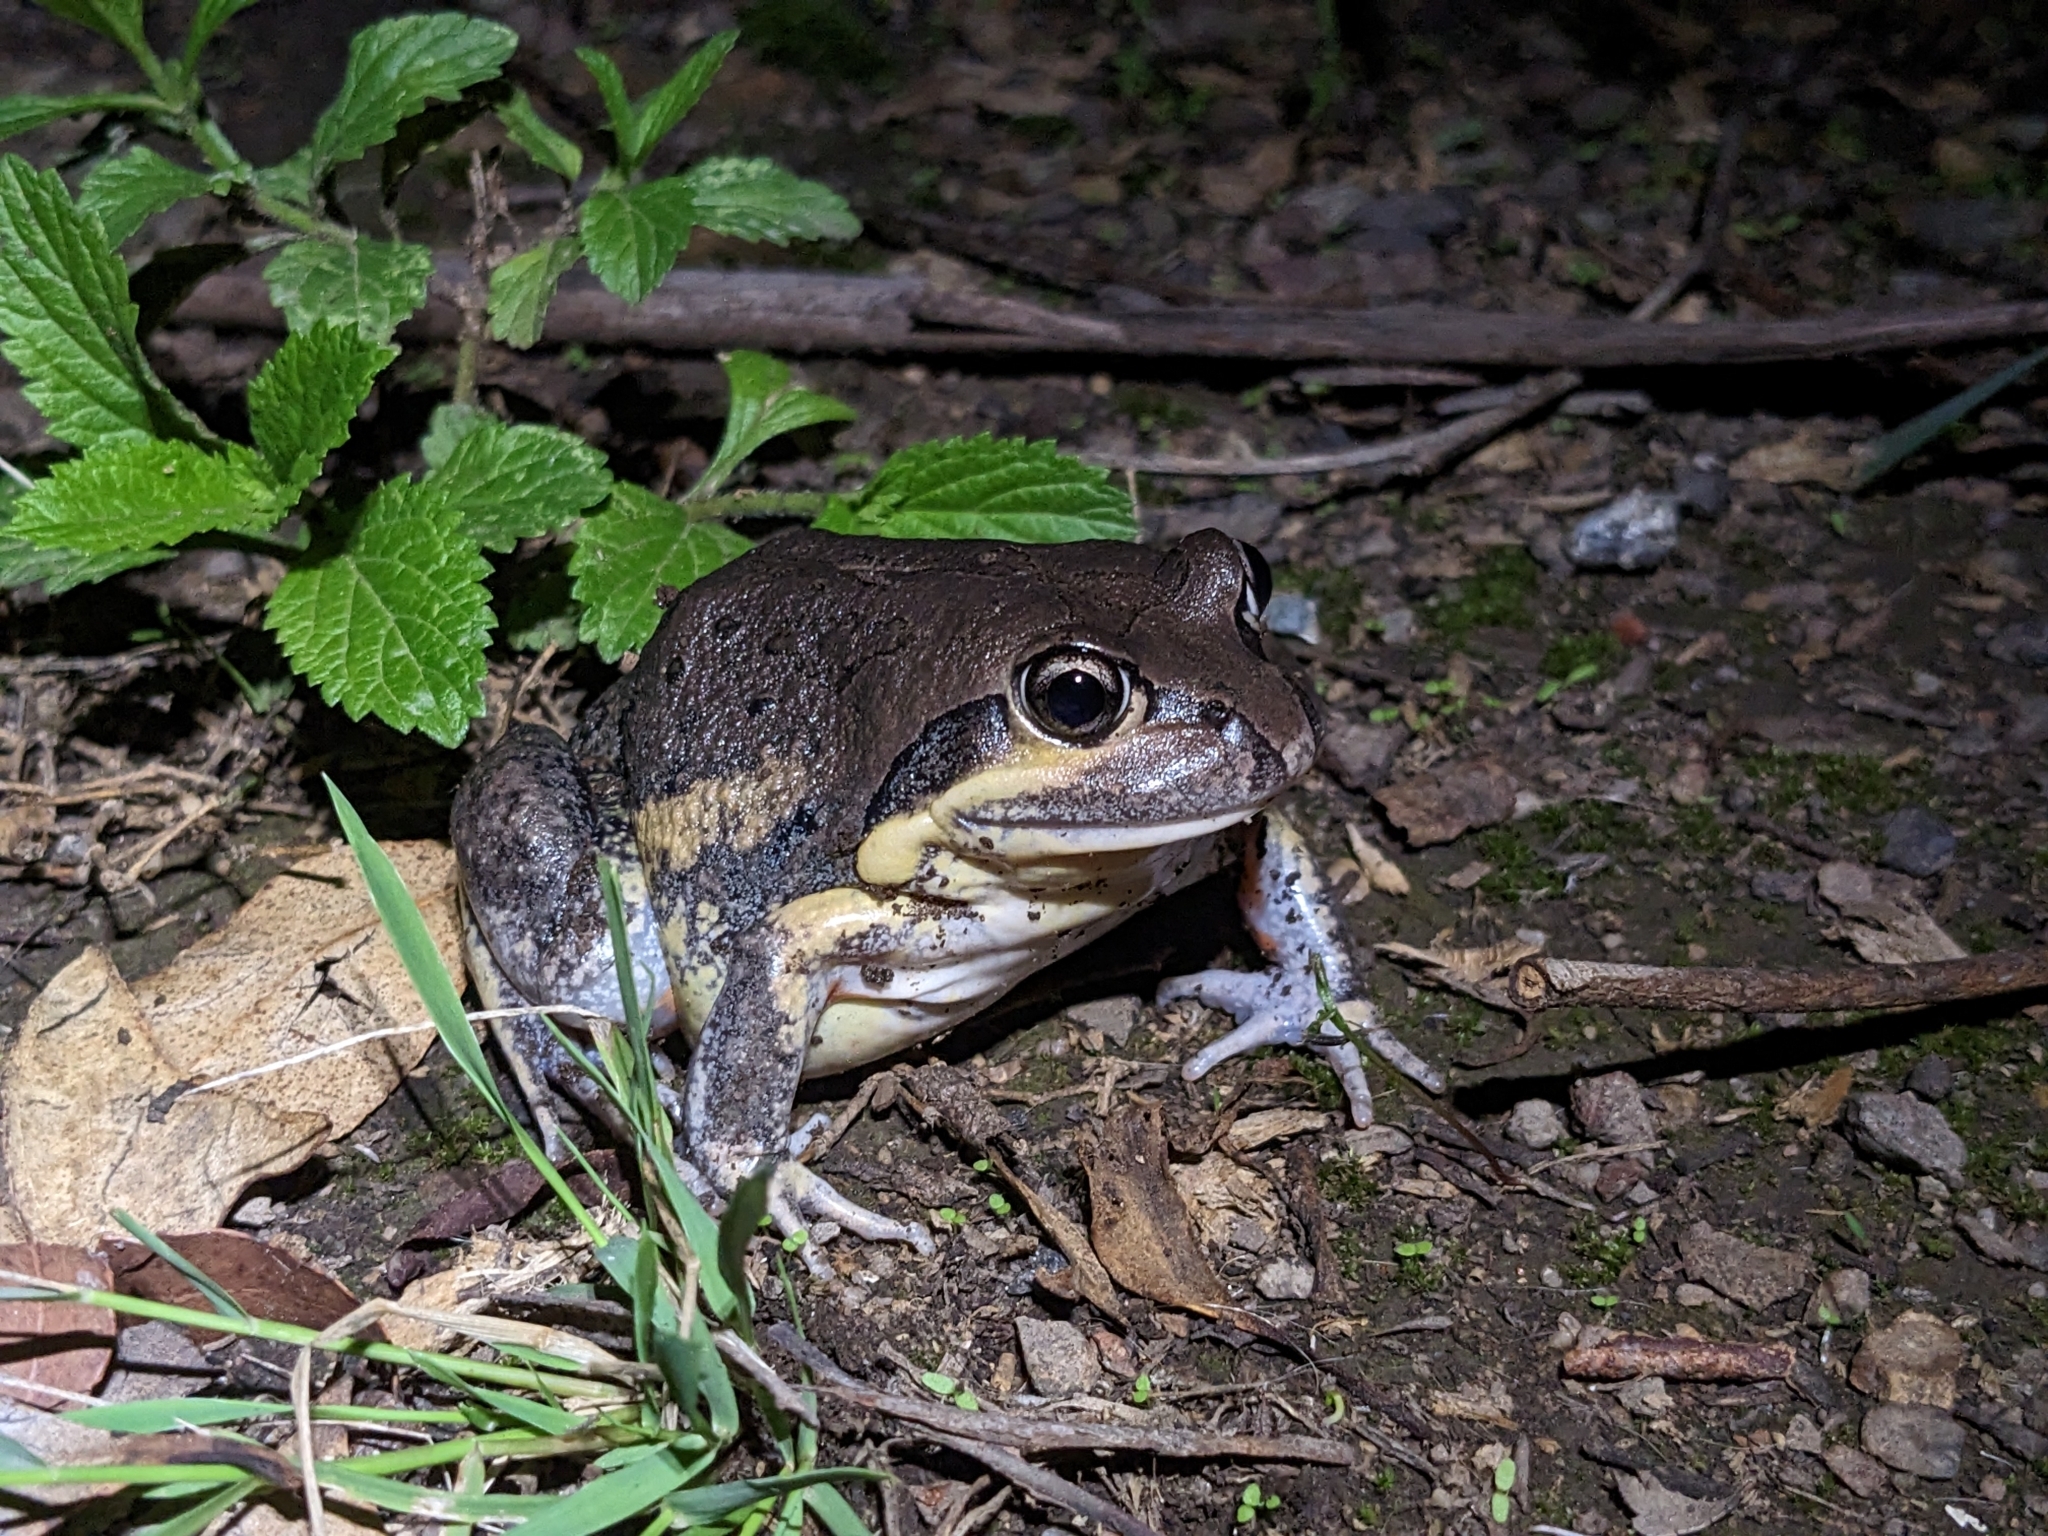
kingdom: Animalia
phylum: Chordata
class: Amphibia
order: Anura
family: Limnodynastidae
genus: Limnodynastes
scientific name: Limnodynastes terraereginae
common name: Northern banjo frog
